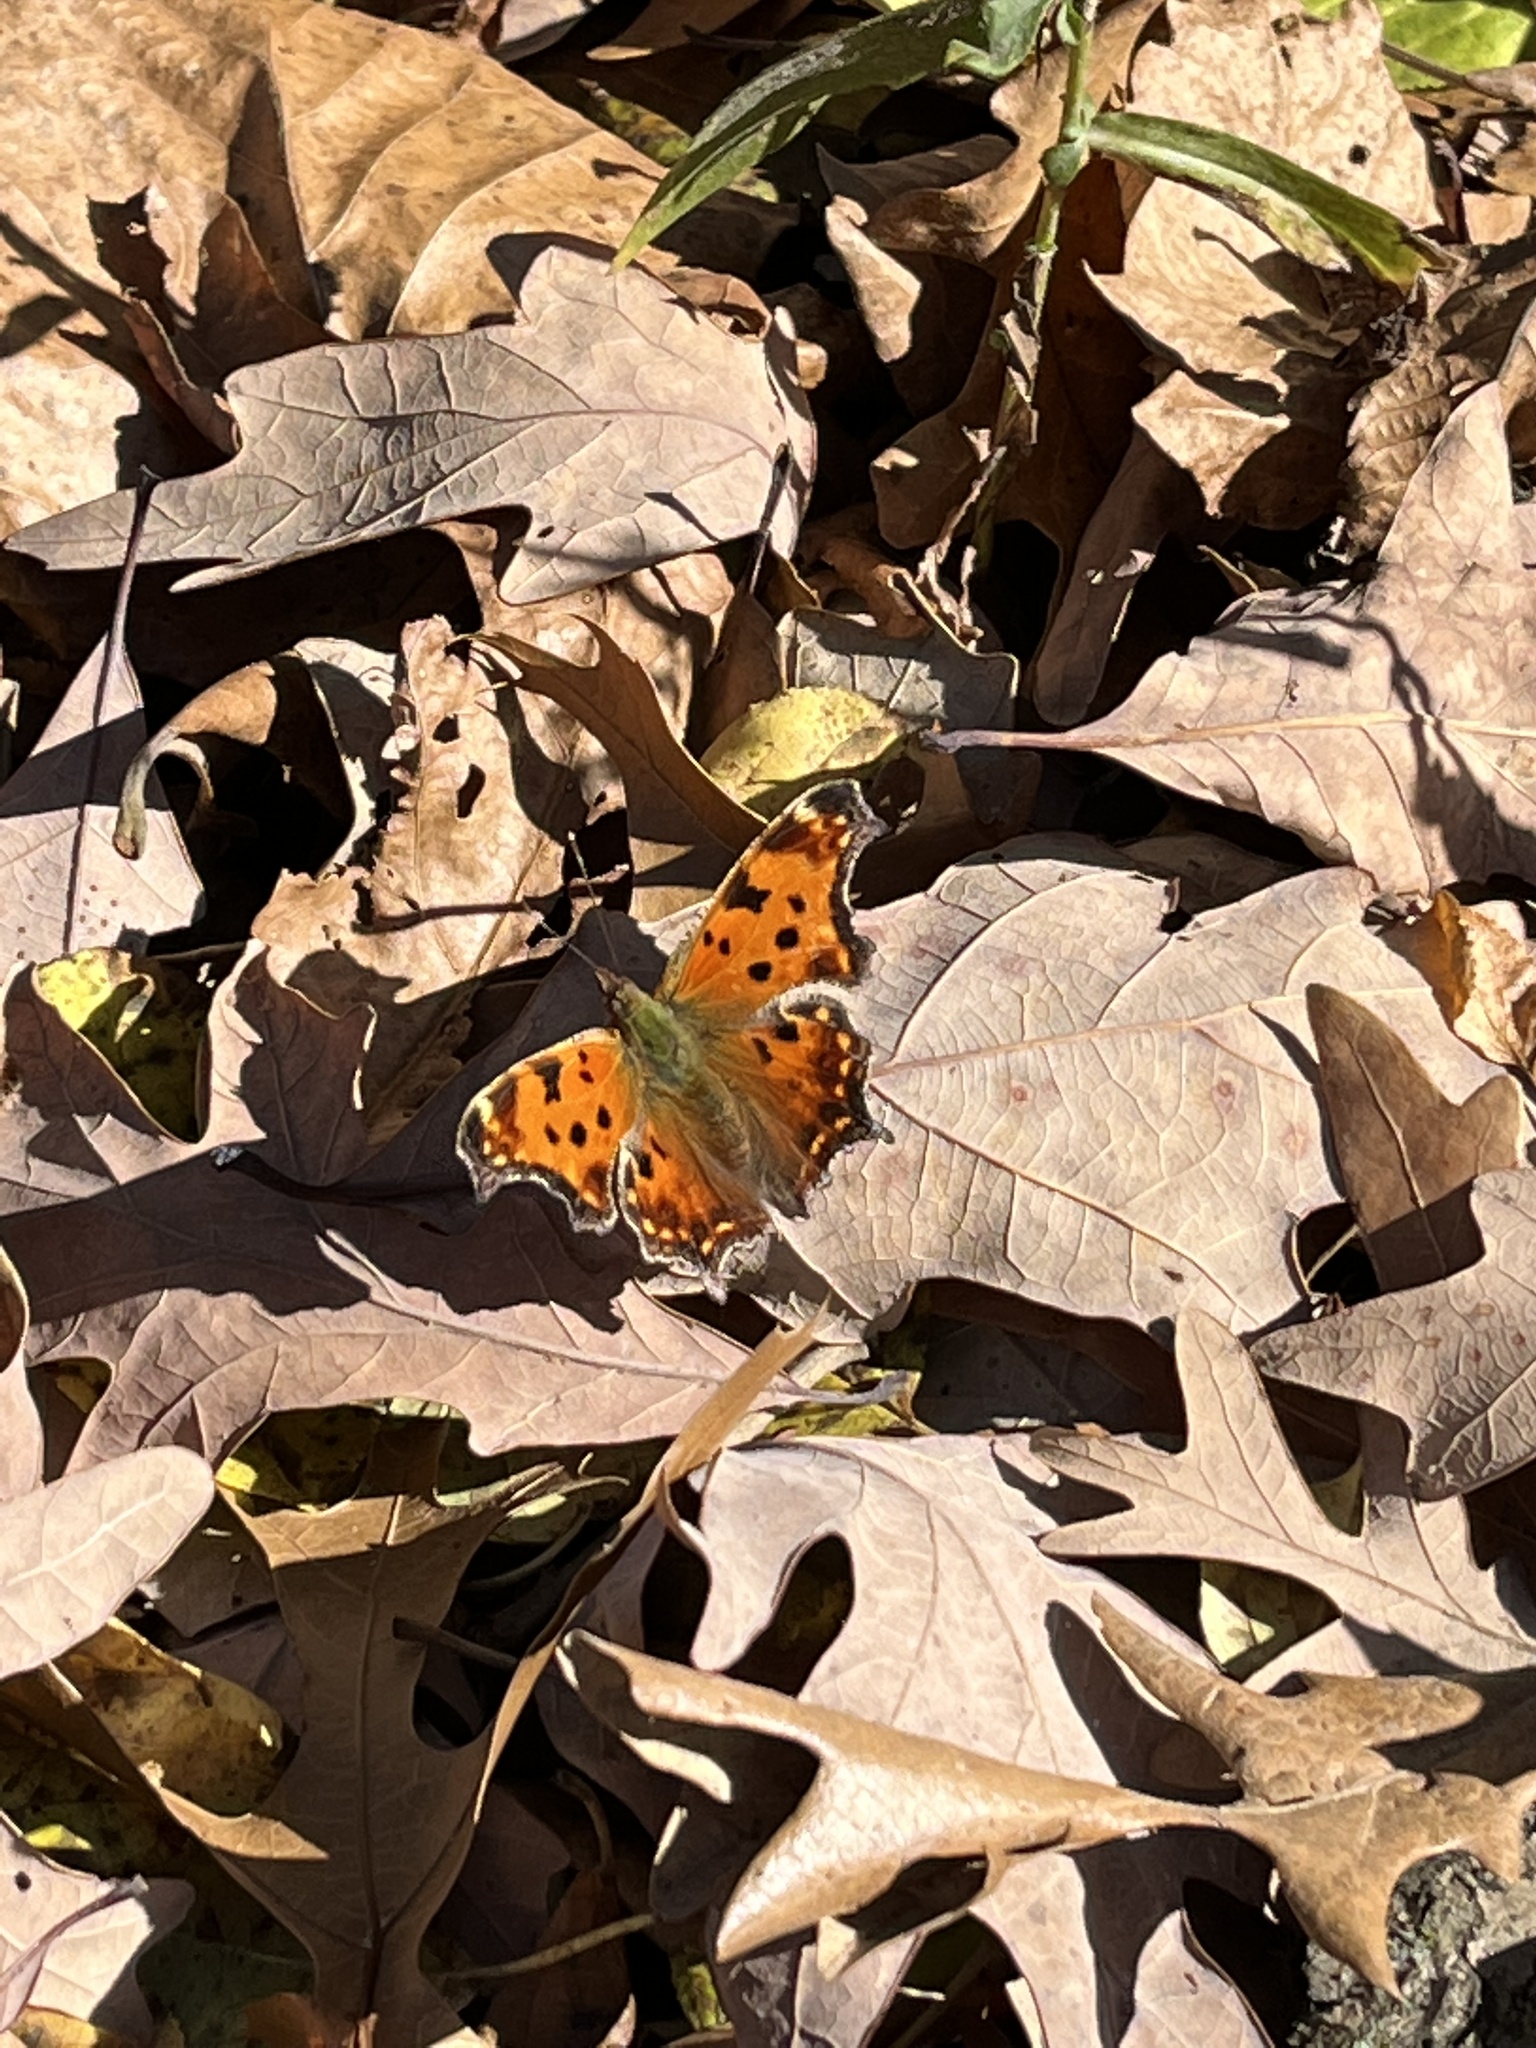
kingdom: Animalia
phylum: Arthropoda
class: Insecta
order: Lepidoptera
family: Nymphalidae
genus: Polygonia
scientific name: Polygonia comma
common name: Eastern comma
